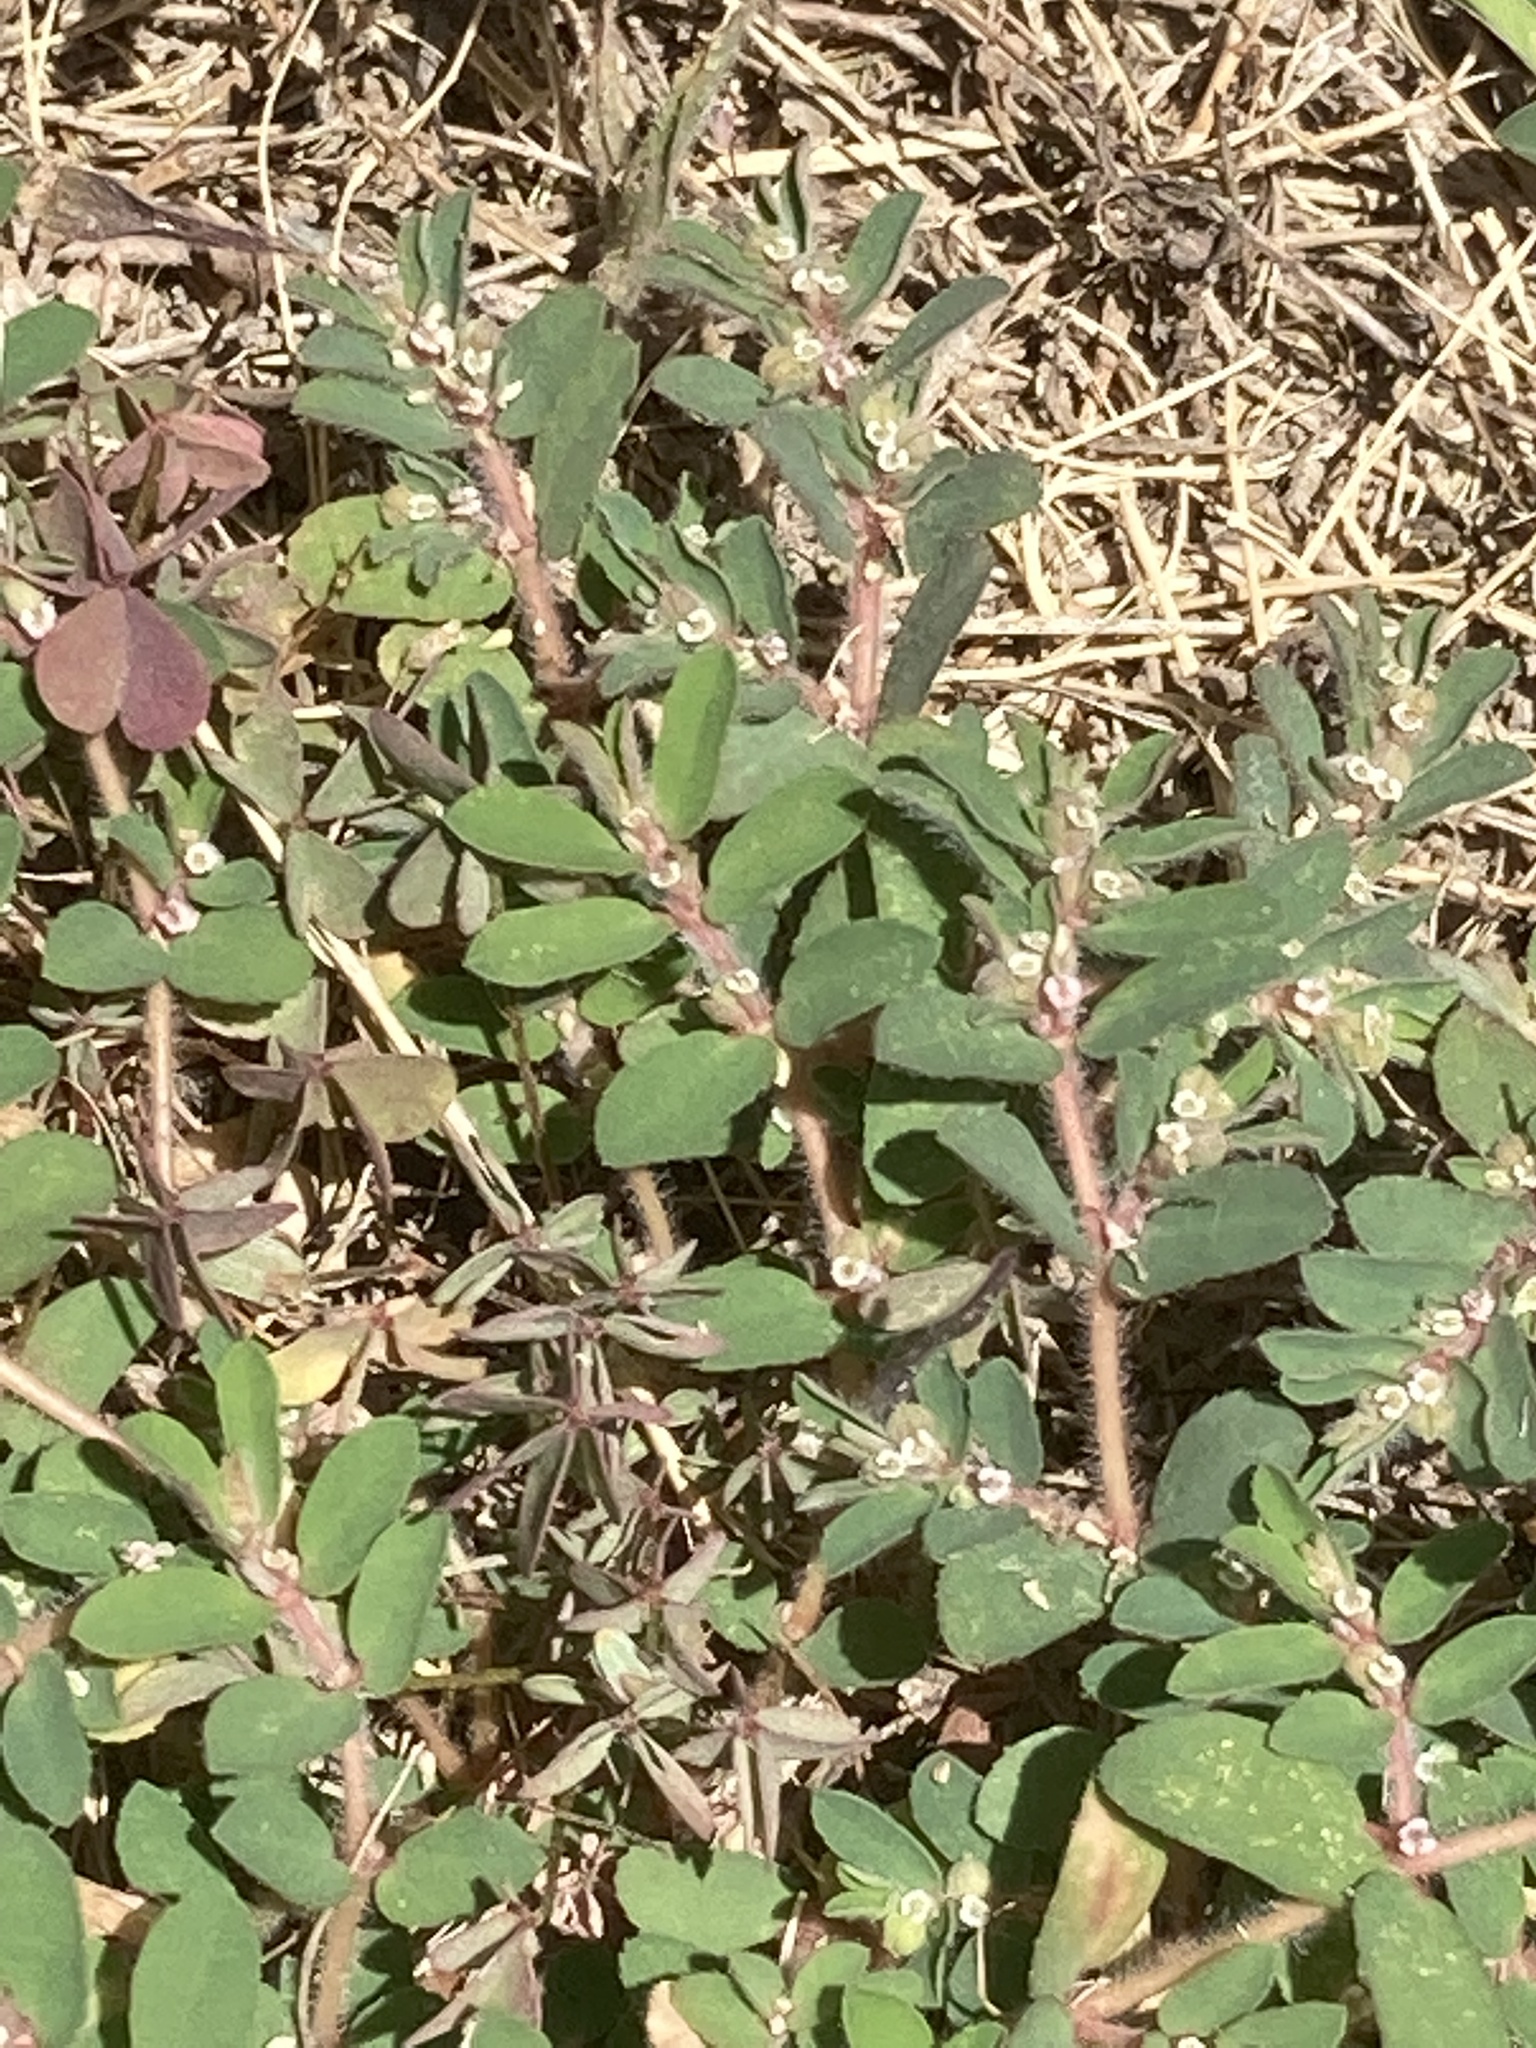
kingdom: Plantae
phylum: Tracheophyta
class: Magnoliopsida
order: Malpighiales
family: Euphorbiaceae
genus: Euphorbia
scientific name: Euphorbia maculata
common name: Spotted spurge
